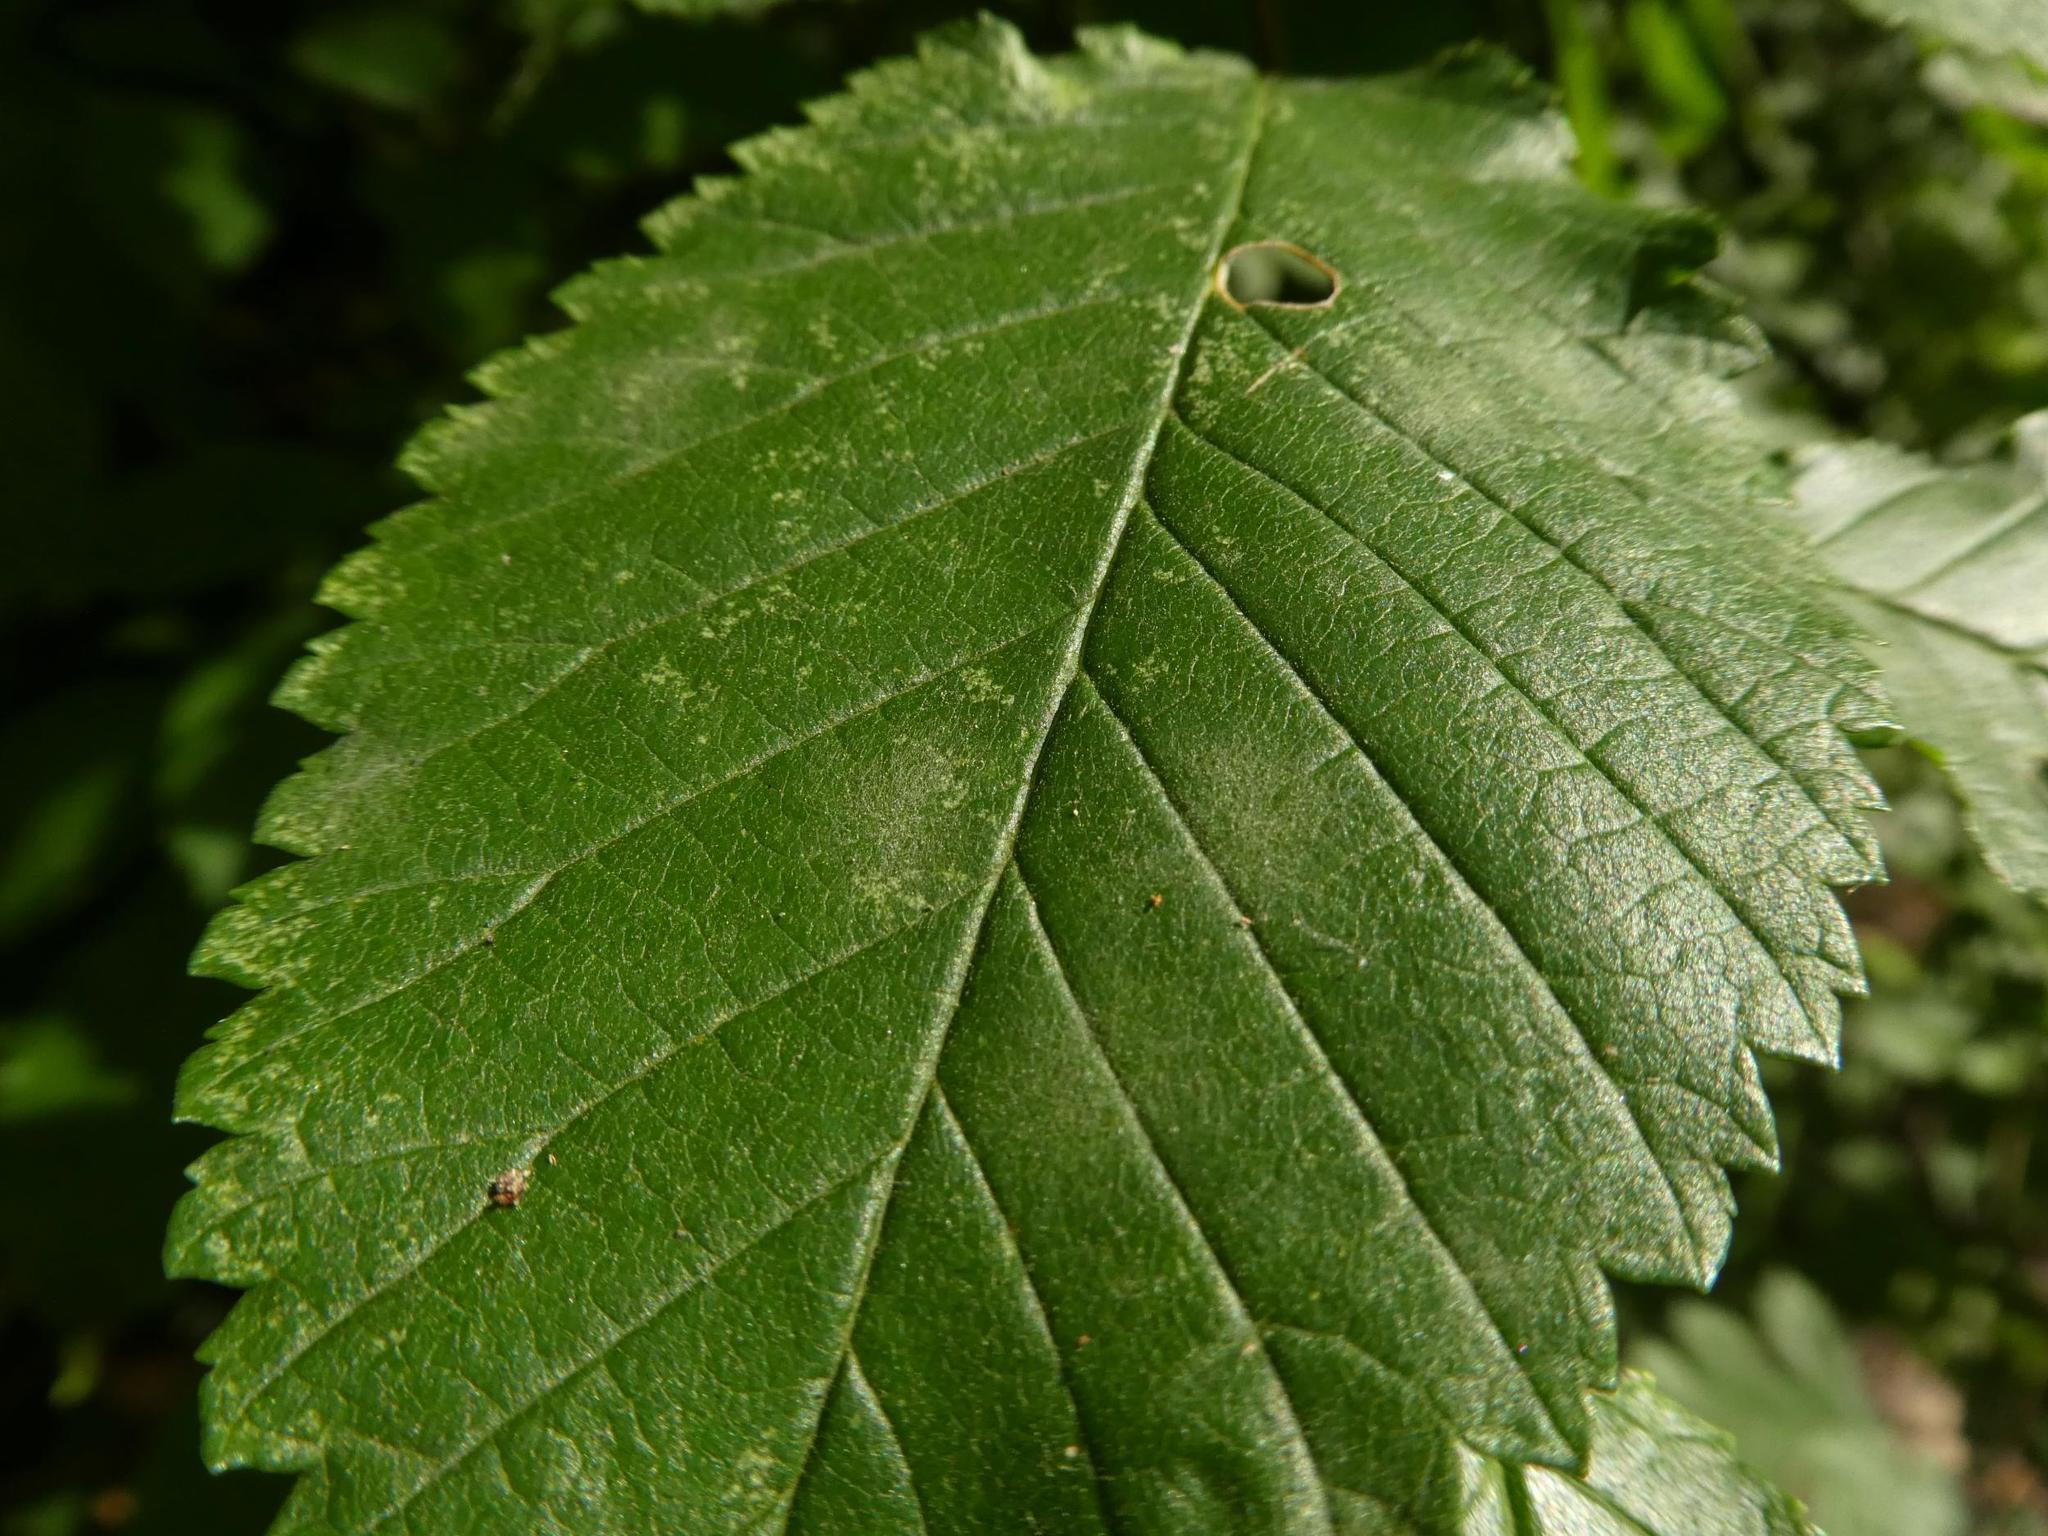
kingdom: Fungi
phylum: Ascomycota
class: Leotiomycetes
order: Helotiales
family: Erysiphaceae
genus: Erysiphe
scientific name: Erysiphe ulmi
